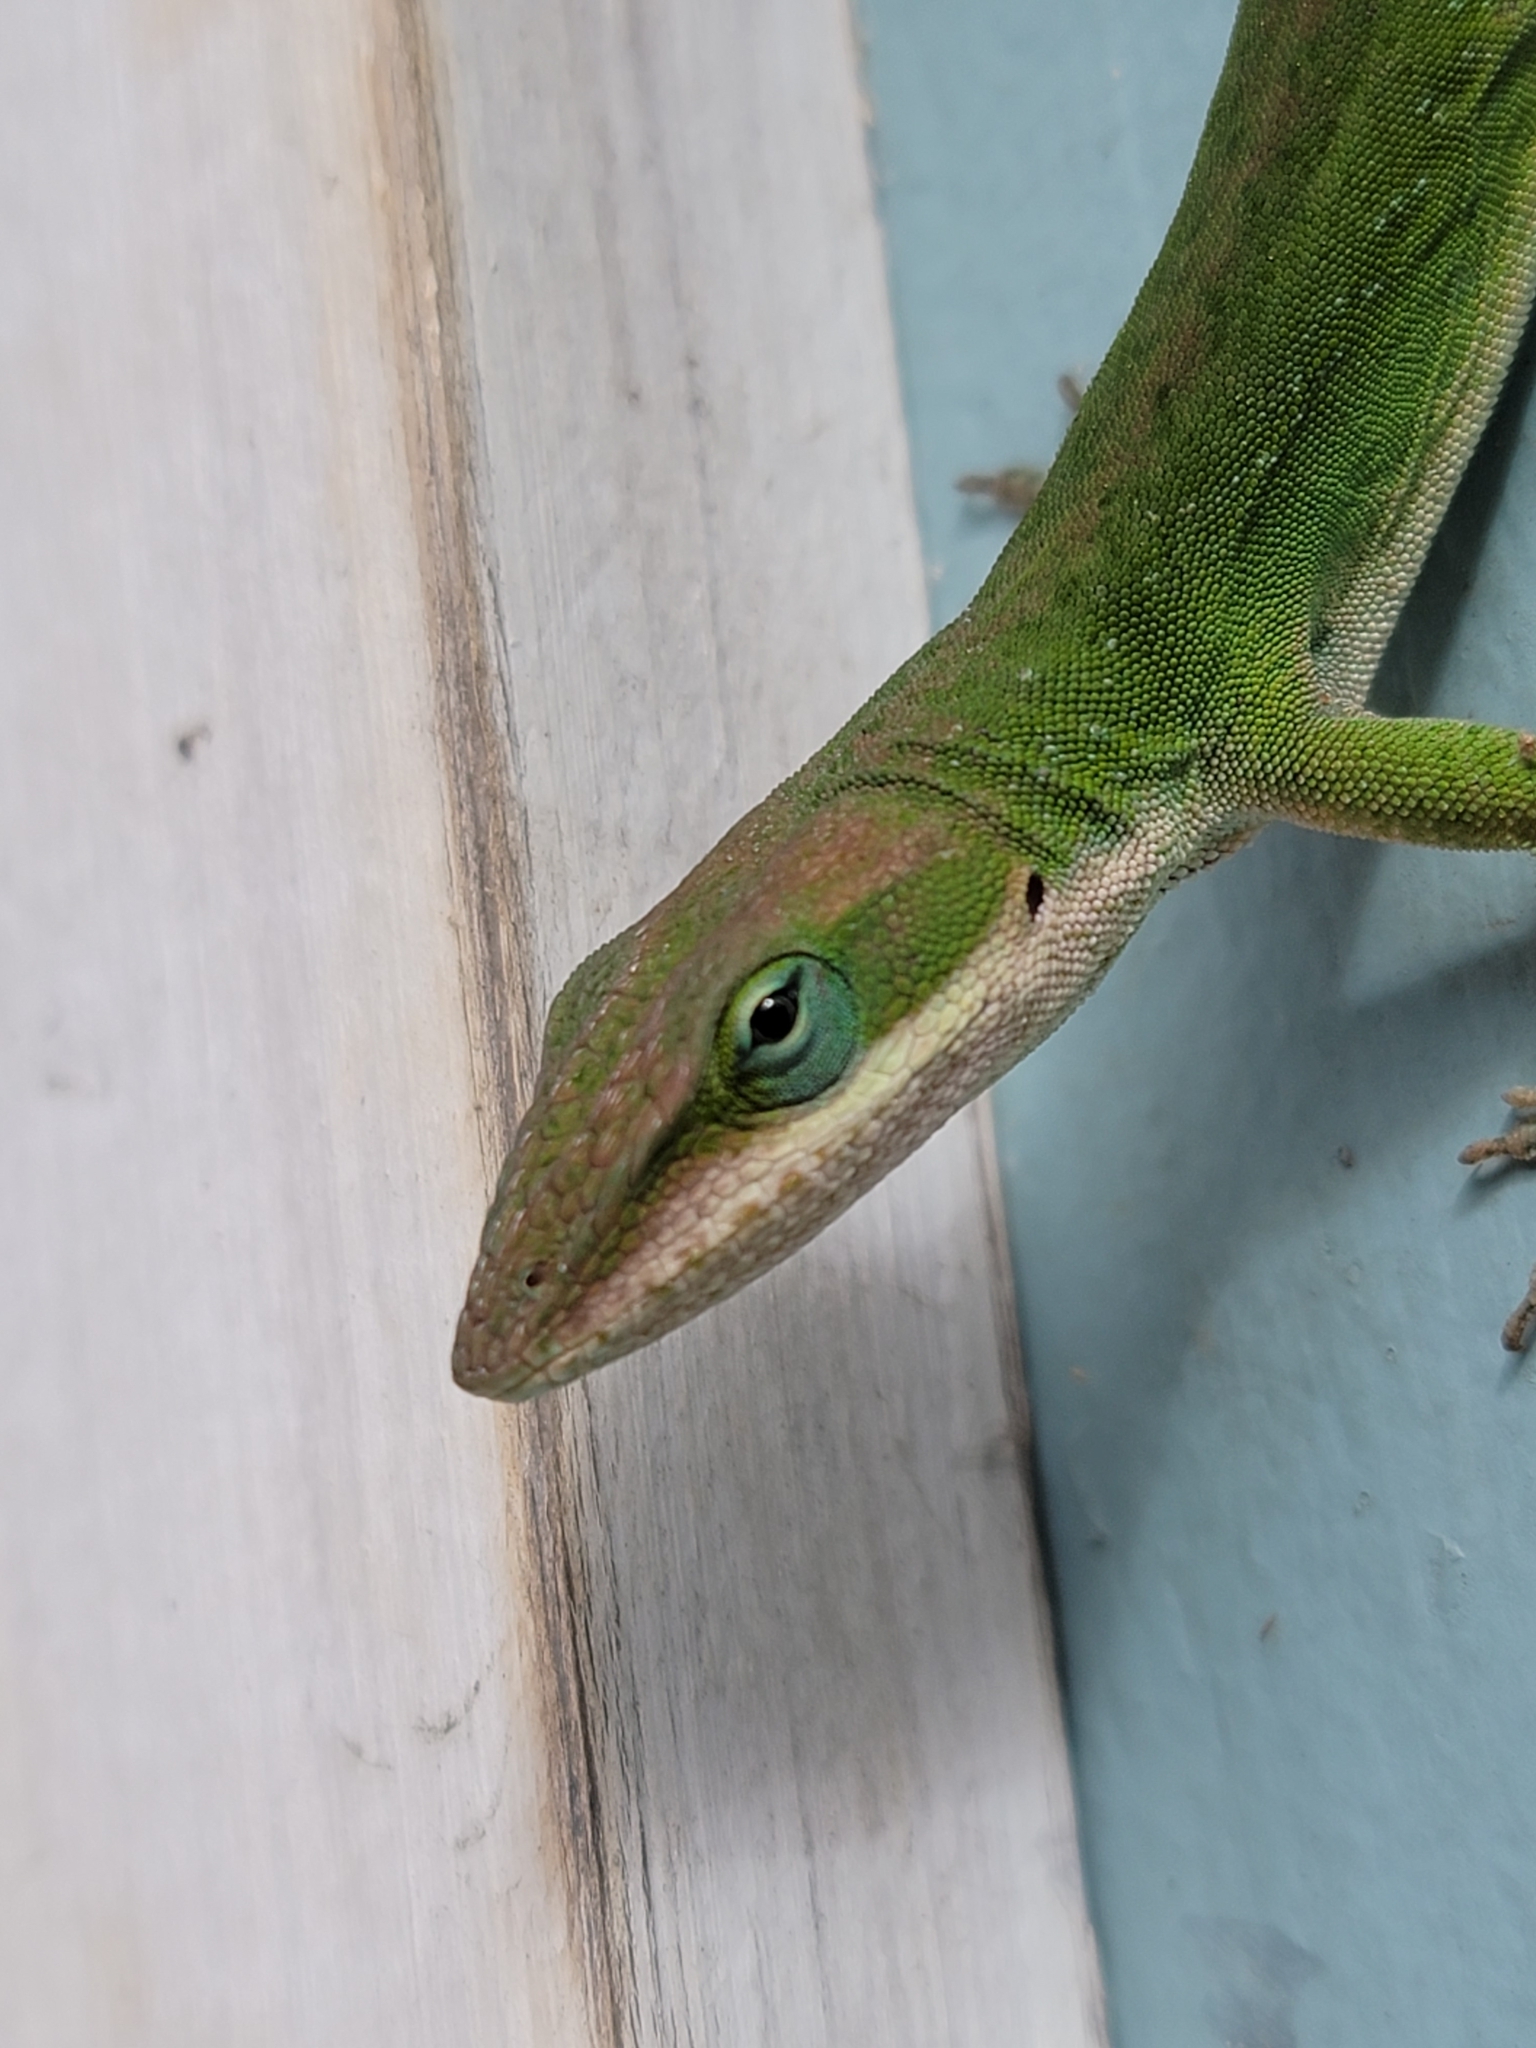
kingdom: Animalia
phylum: Chordata
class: Squamata
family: Dactyloidae
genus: Anolis
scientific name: Anolis carolinensis
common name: Green anole
